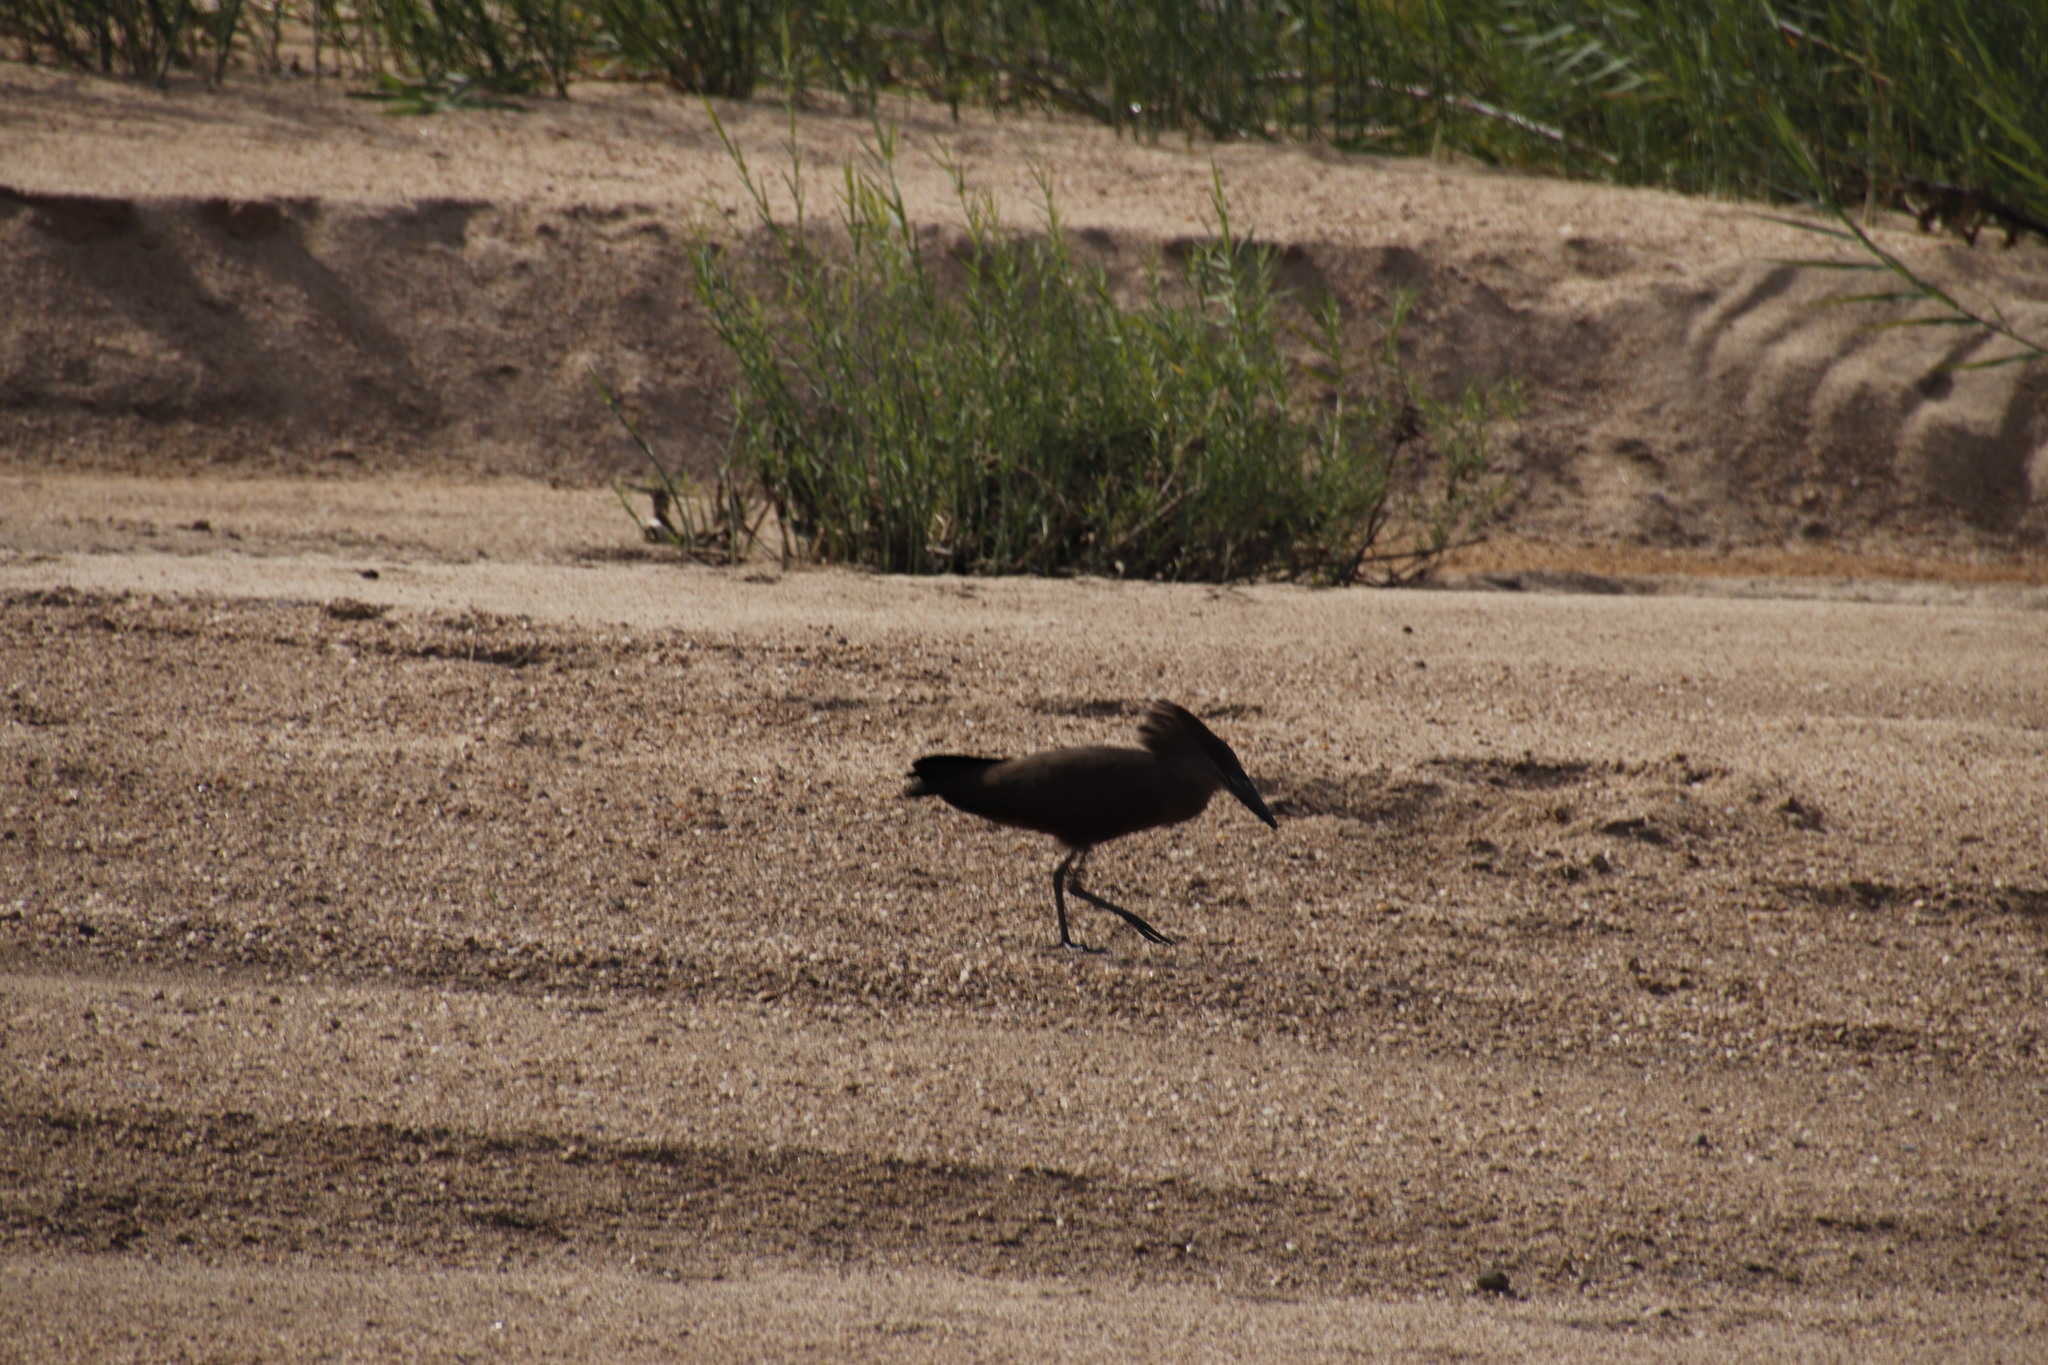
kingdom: Animalia
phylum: Chordata
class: Aves
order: Pelecaniformes
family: Scopidae
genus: Scopus
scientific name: Scopus umbretta
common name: Hamerkop
